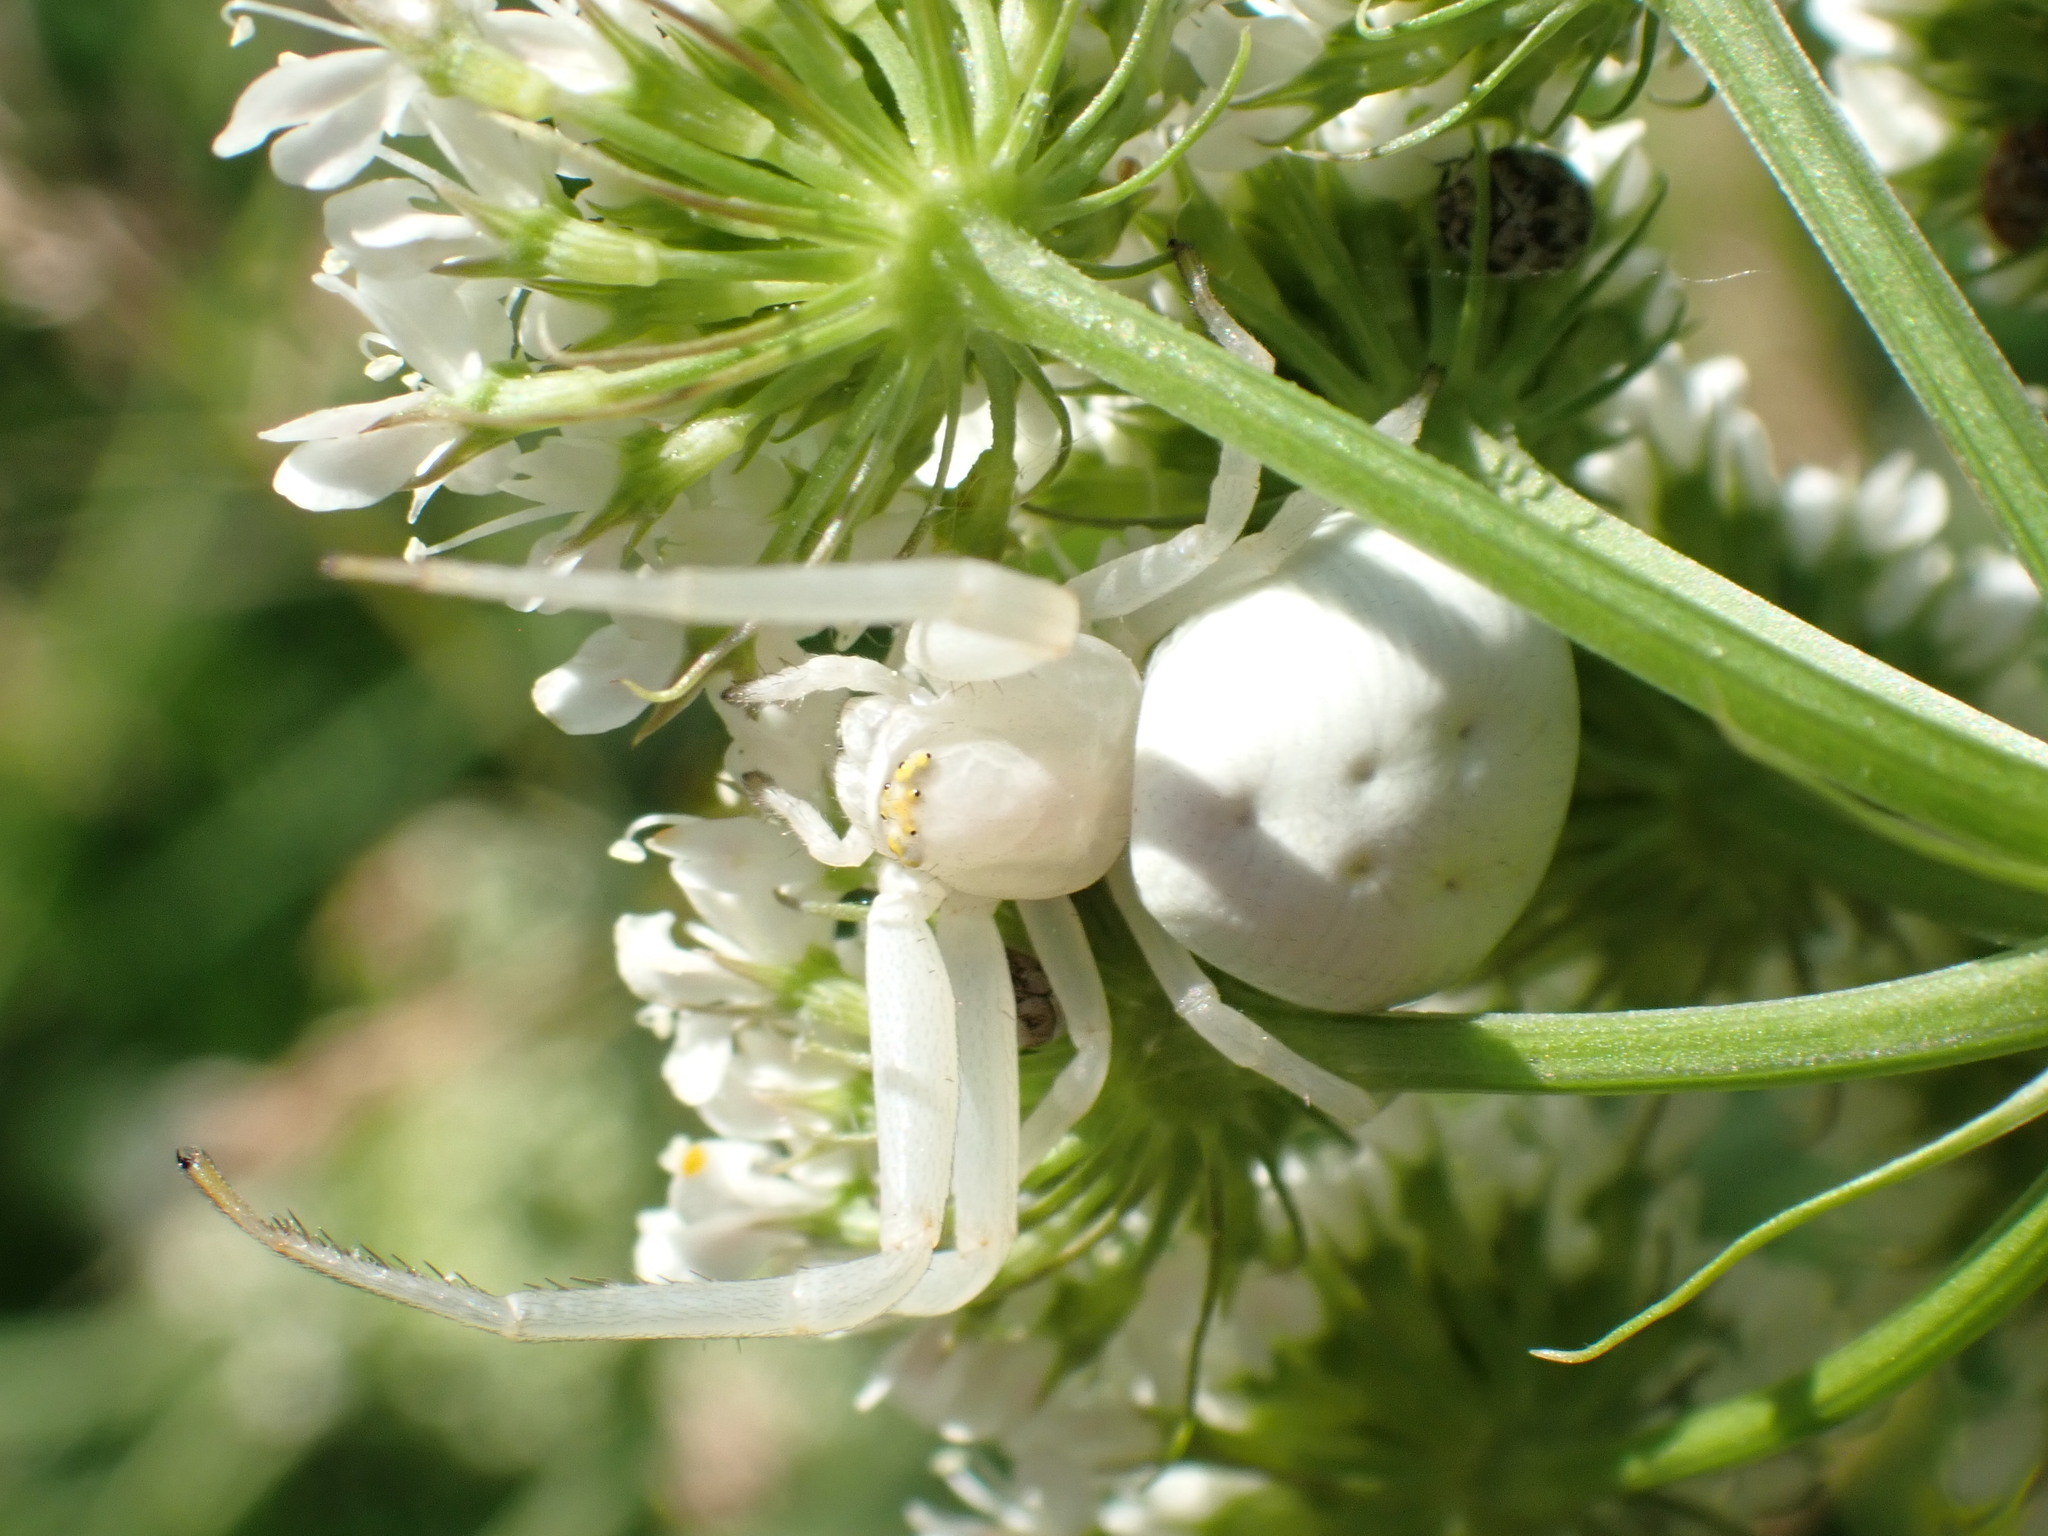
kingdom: Animalia
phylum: Arthropoda
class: Arachnida
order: Araneae
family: Thomisidae
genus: Misumena
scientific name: Misumena vatia
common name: Goldenrod crab spider
